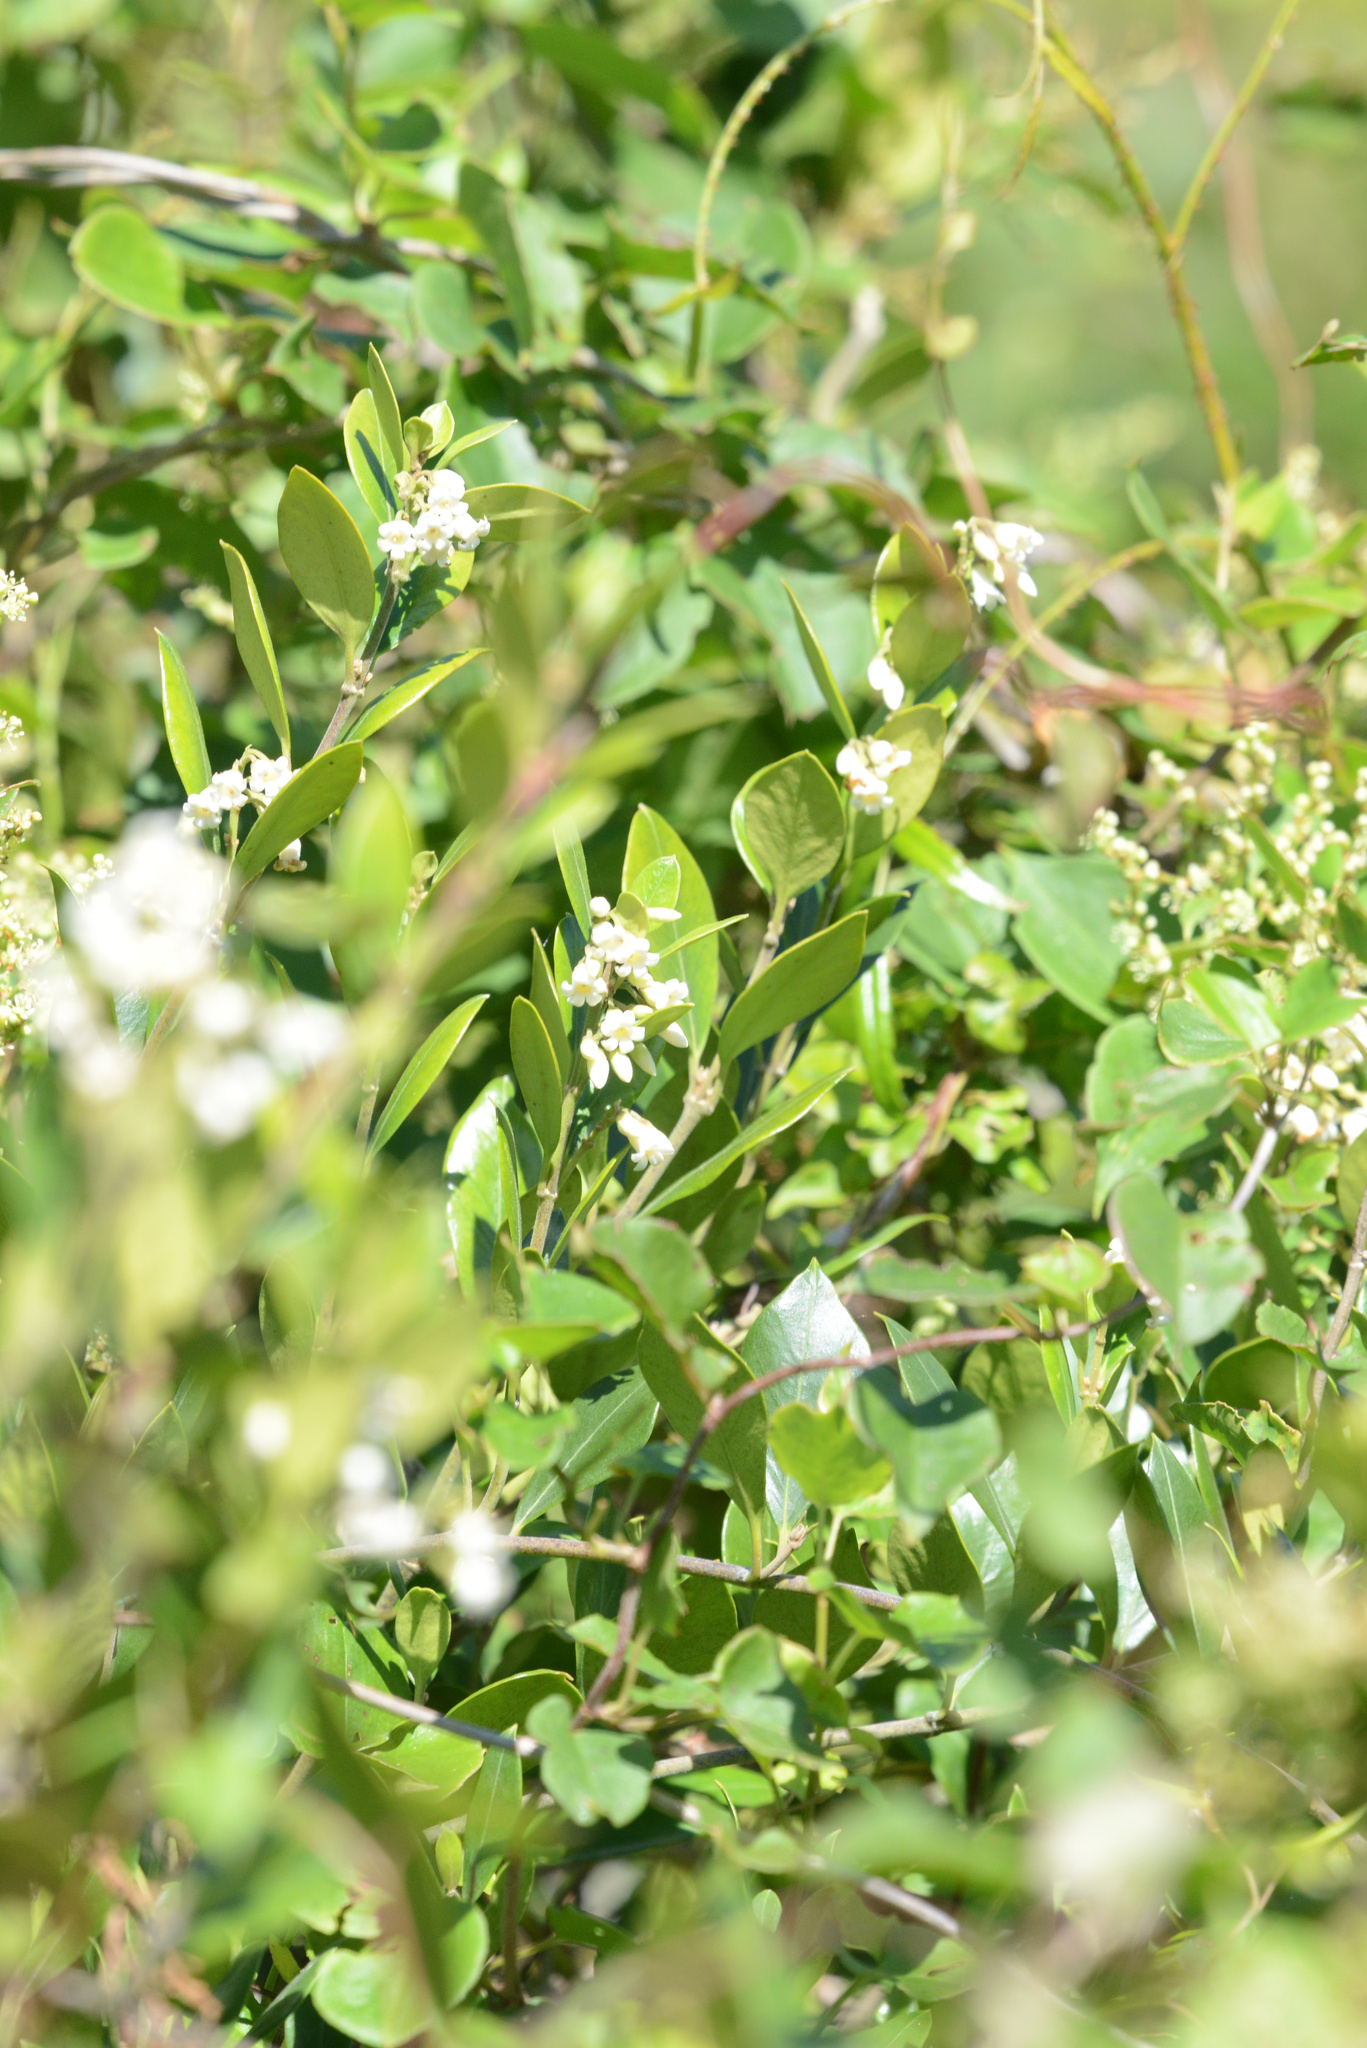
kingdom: Plantae
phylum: Tracheophyta
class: Magnoliopsida
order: Gentianales
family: Apocynaceae
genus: Parsonsia
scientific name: Parsonsia heterophylla
